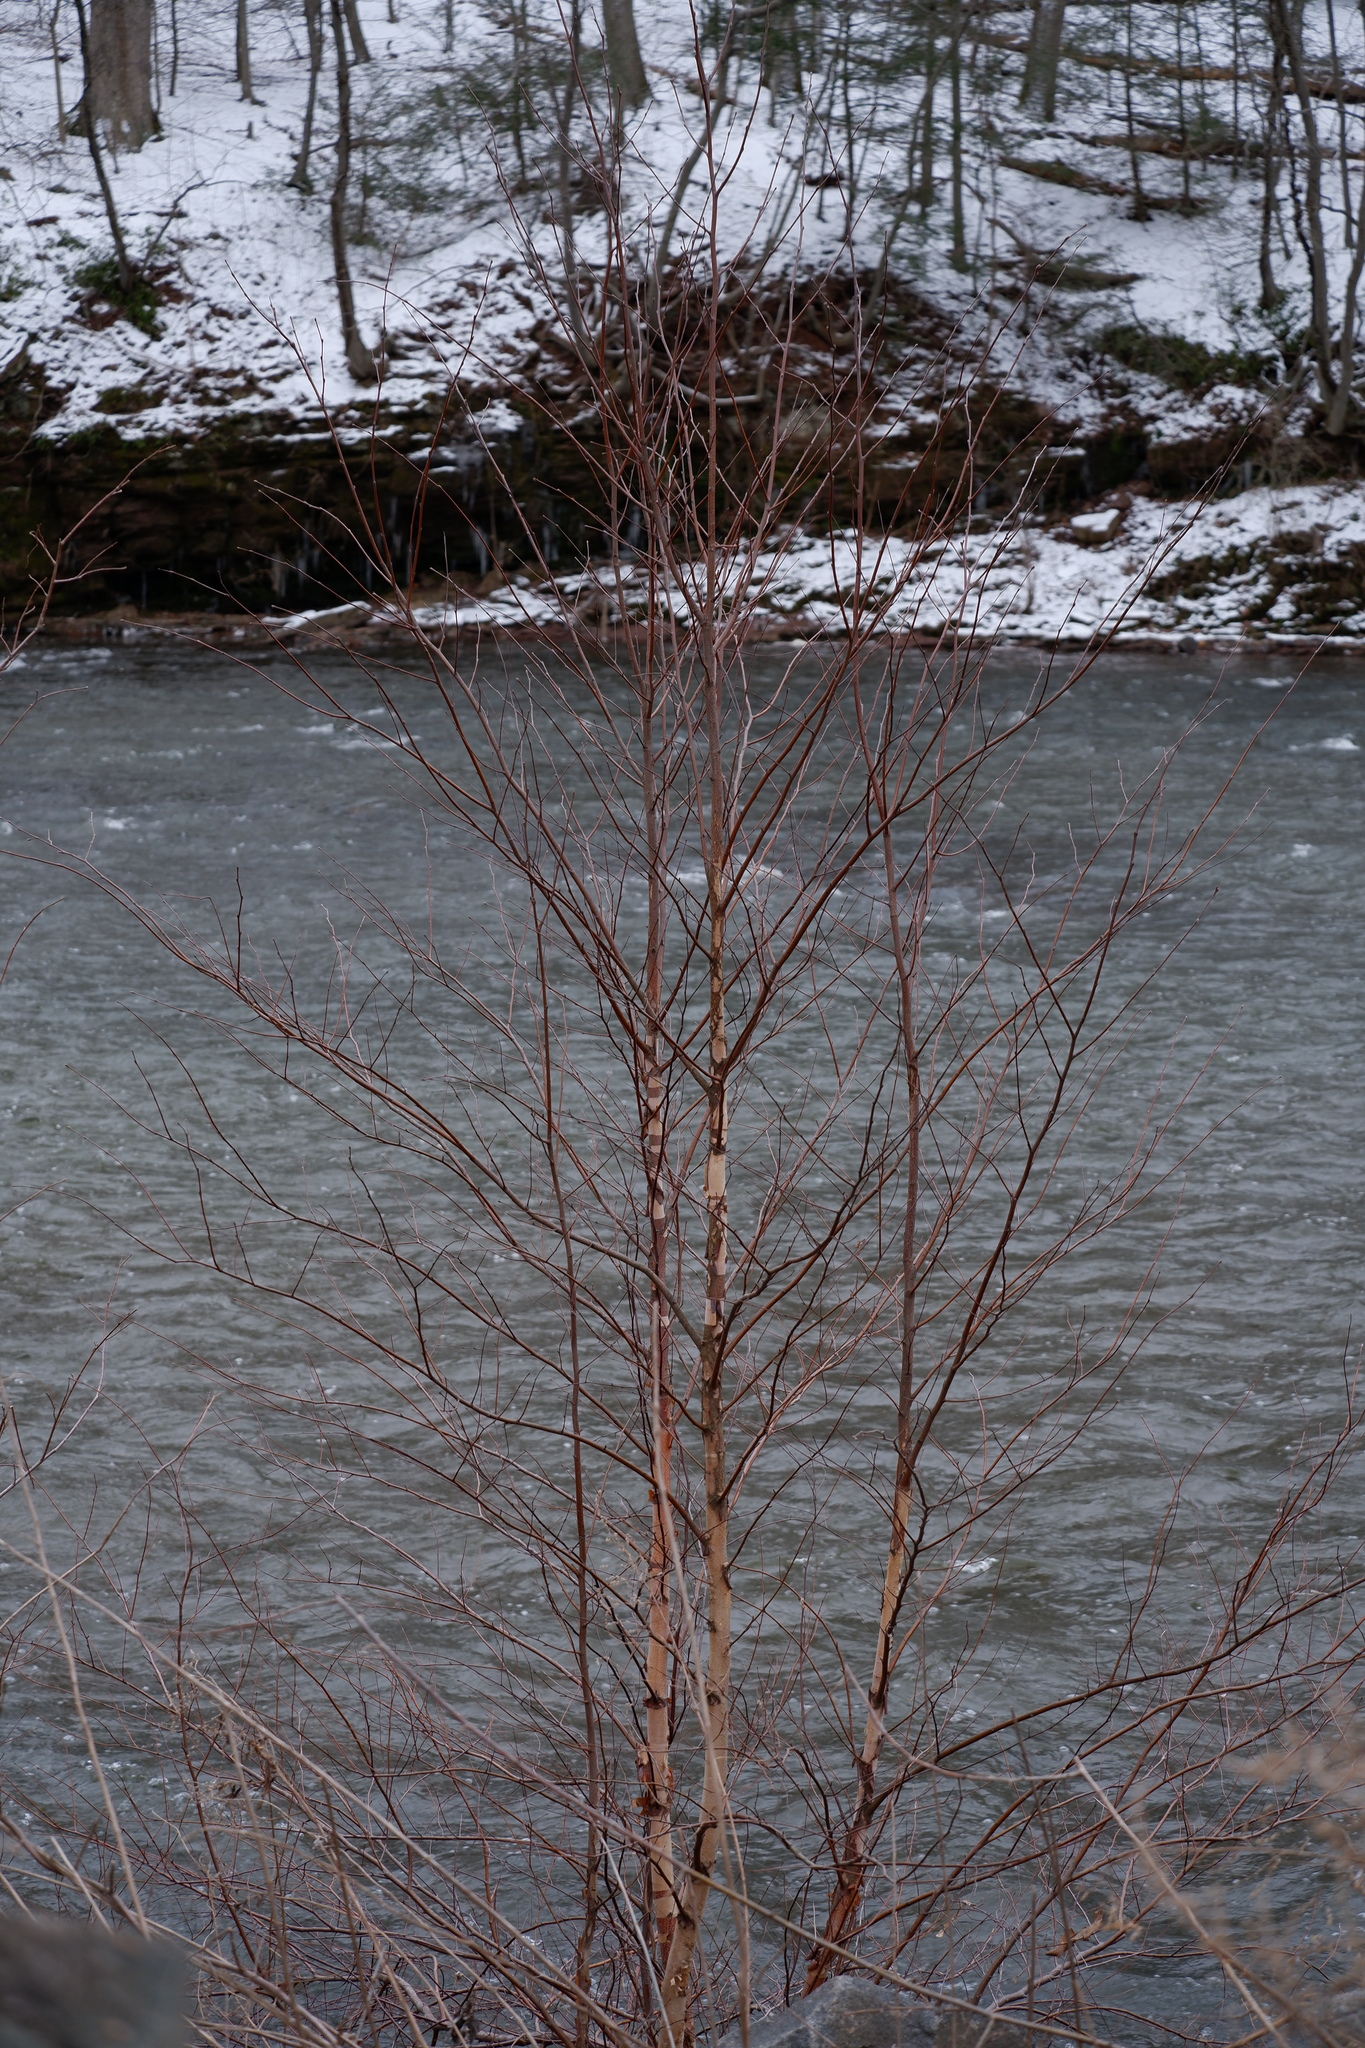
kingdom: Plantae
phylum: Tracheophyta
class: Magnoliopsida
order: Fagales
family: Betulaceae
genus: Betula
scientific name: Betula nigra
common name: Black birch
